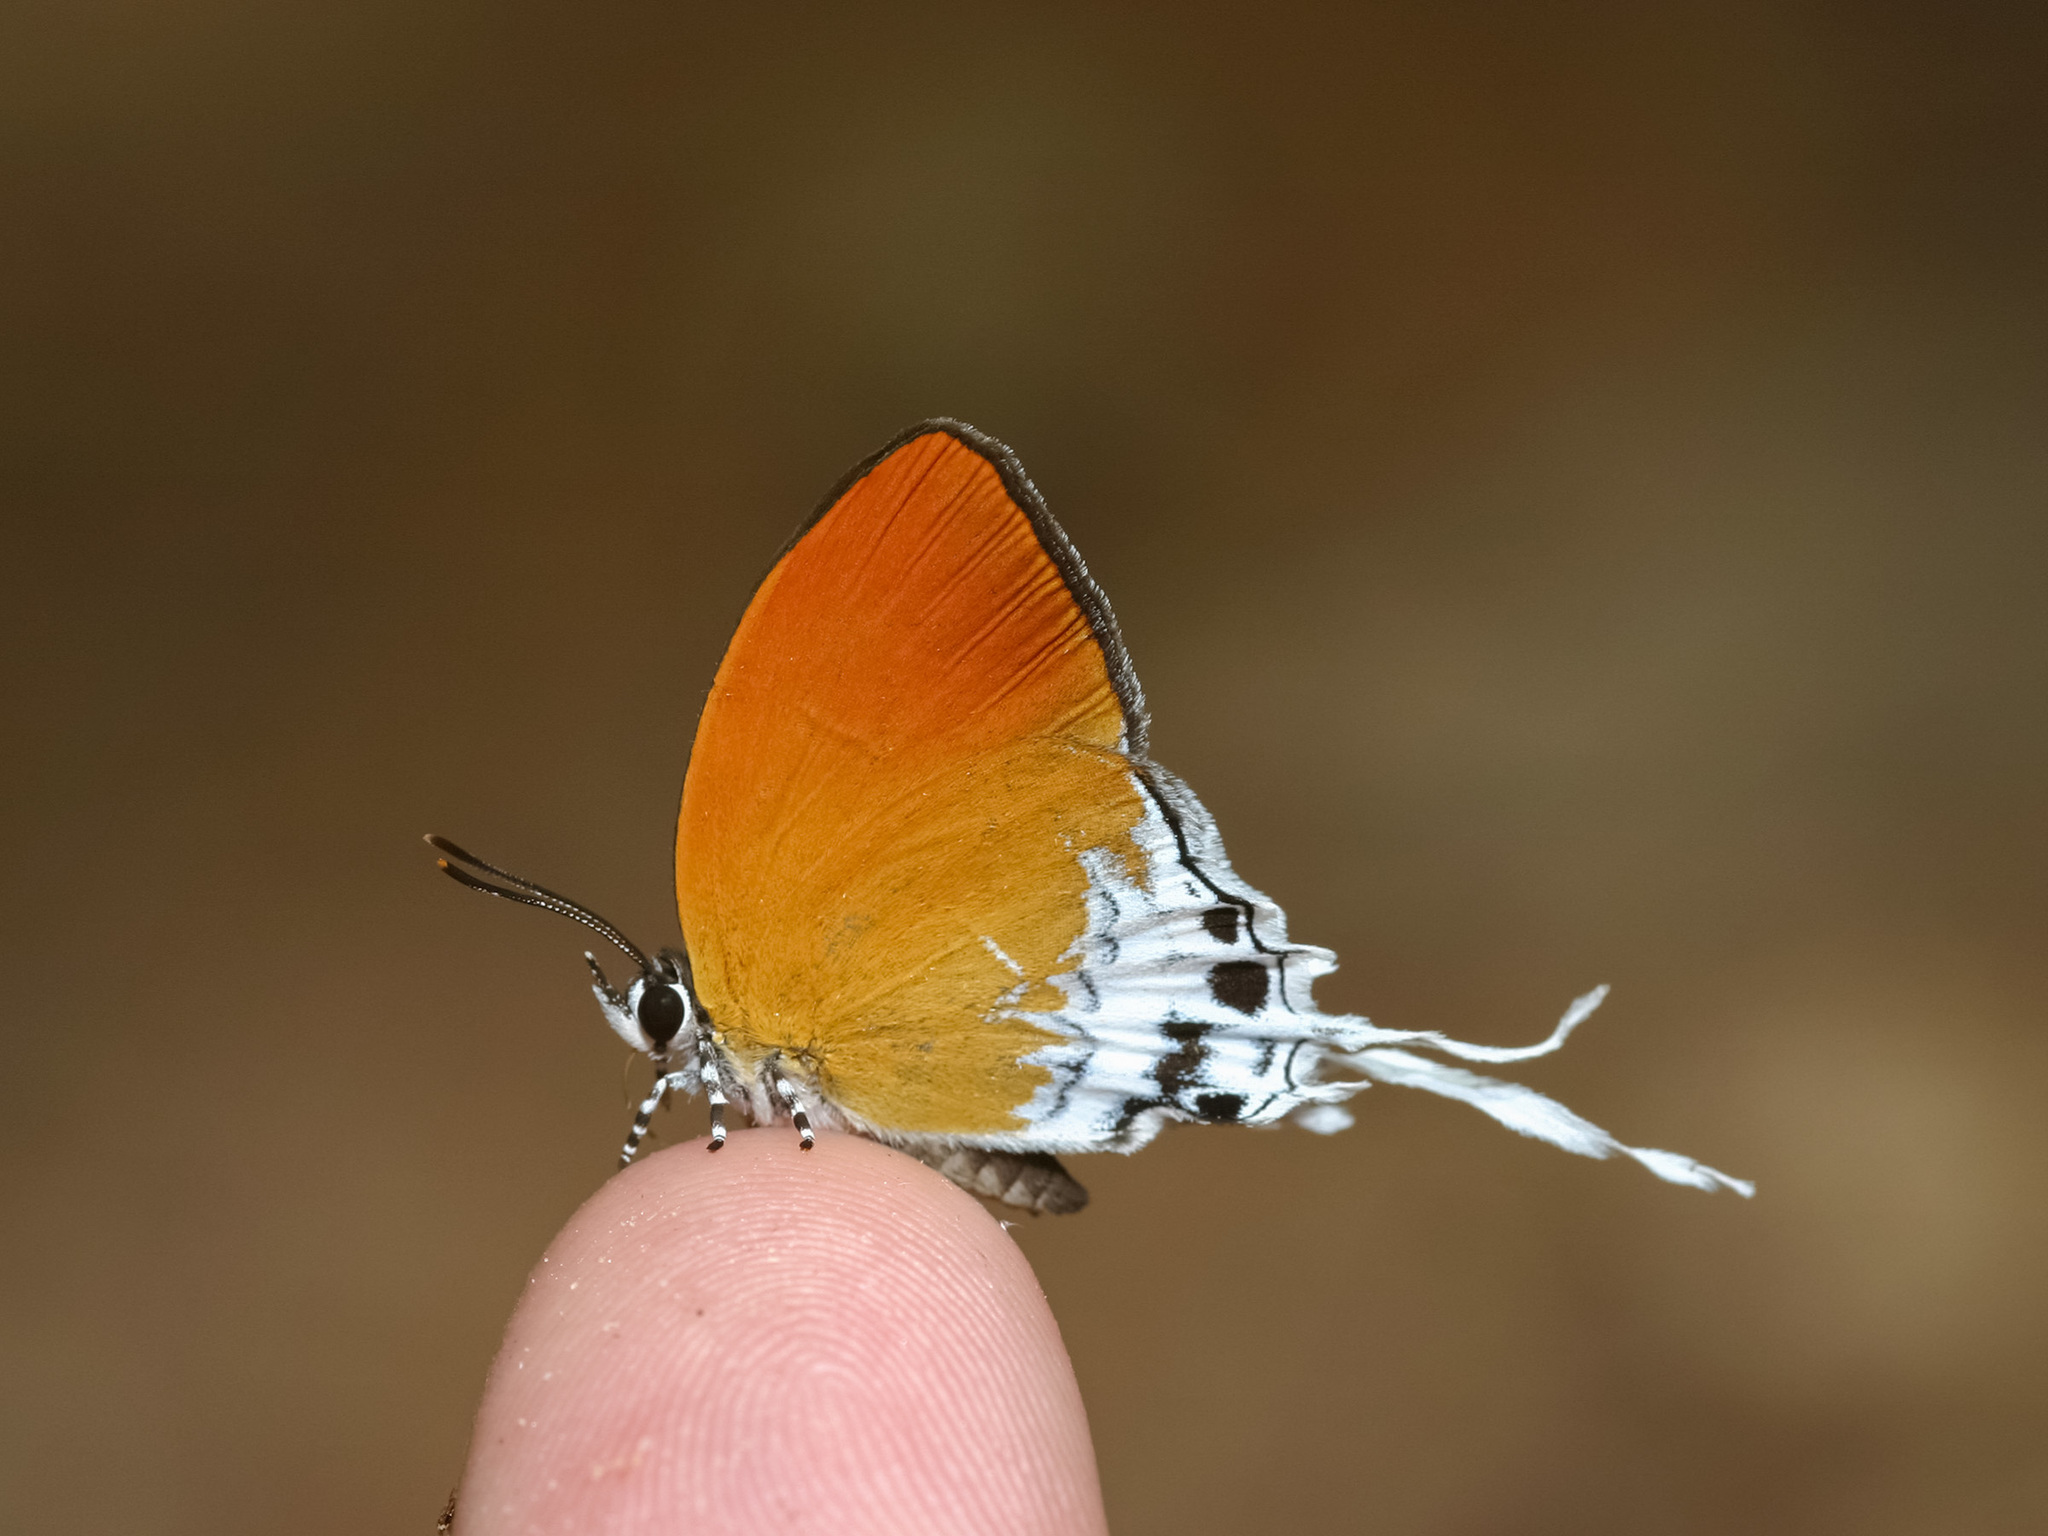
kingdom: Animalia
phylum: Arthropoda
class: Insecta
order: Lepidoptera
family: Lycaenidae
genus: Eooxylides
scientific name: Eooxylides tharis
